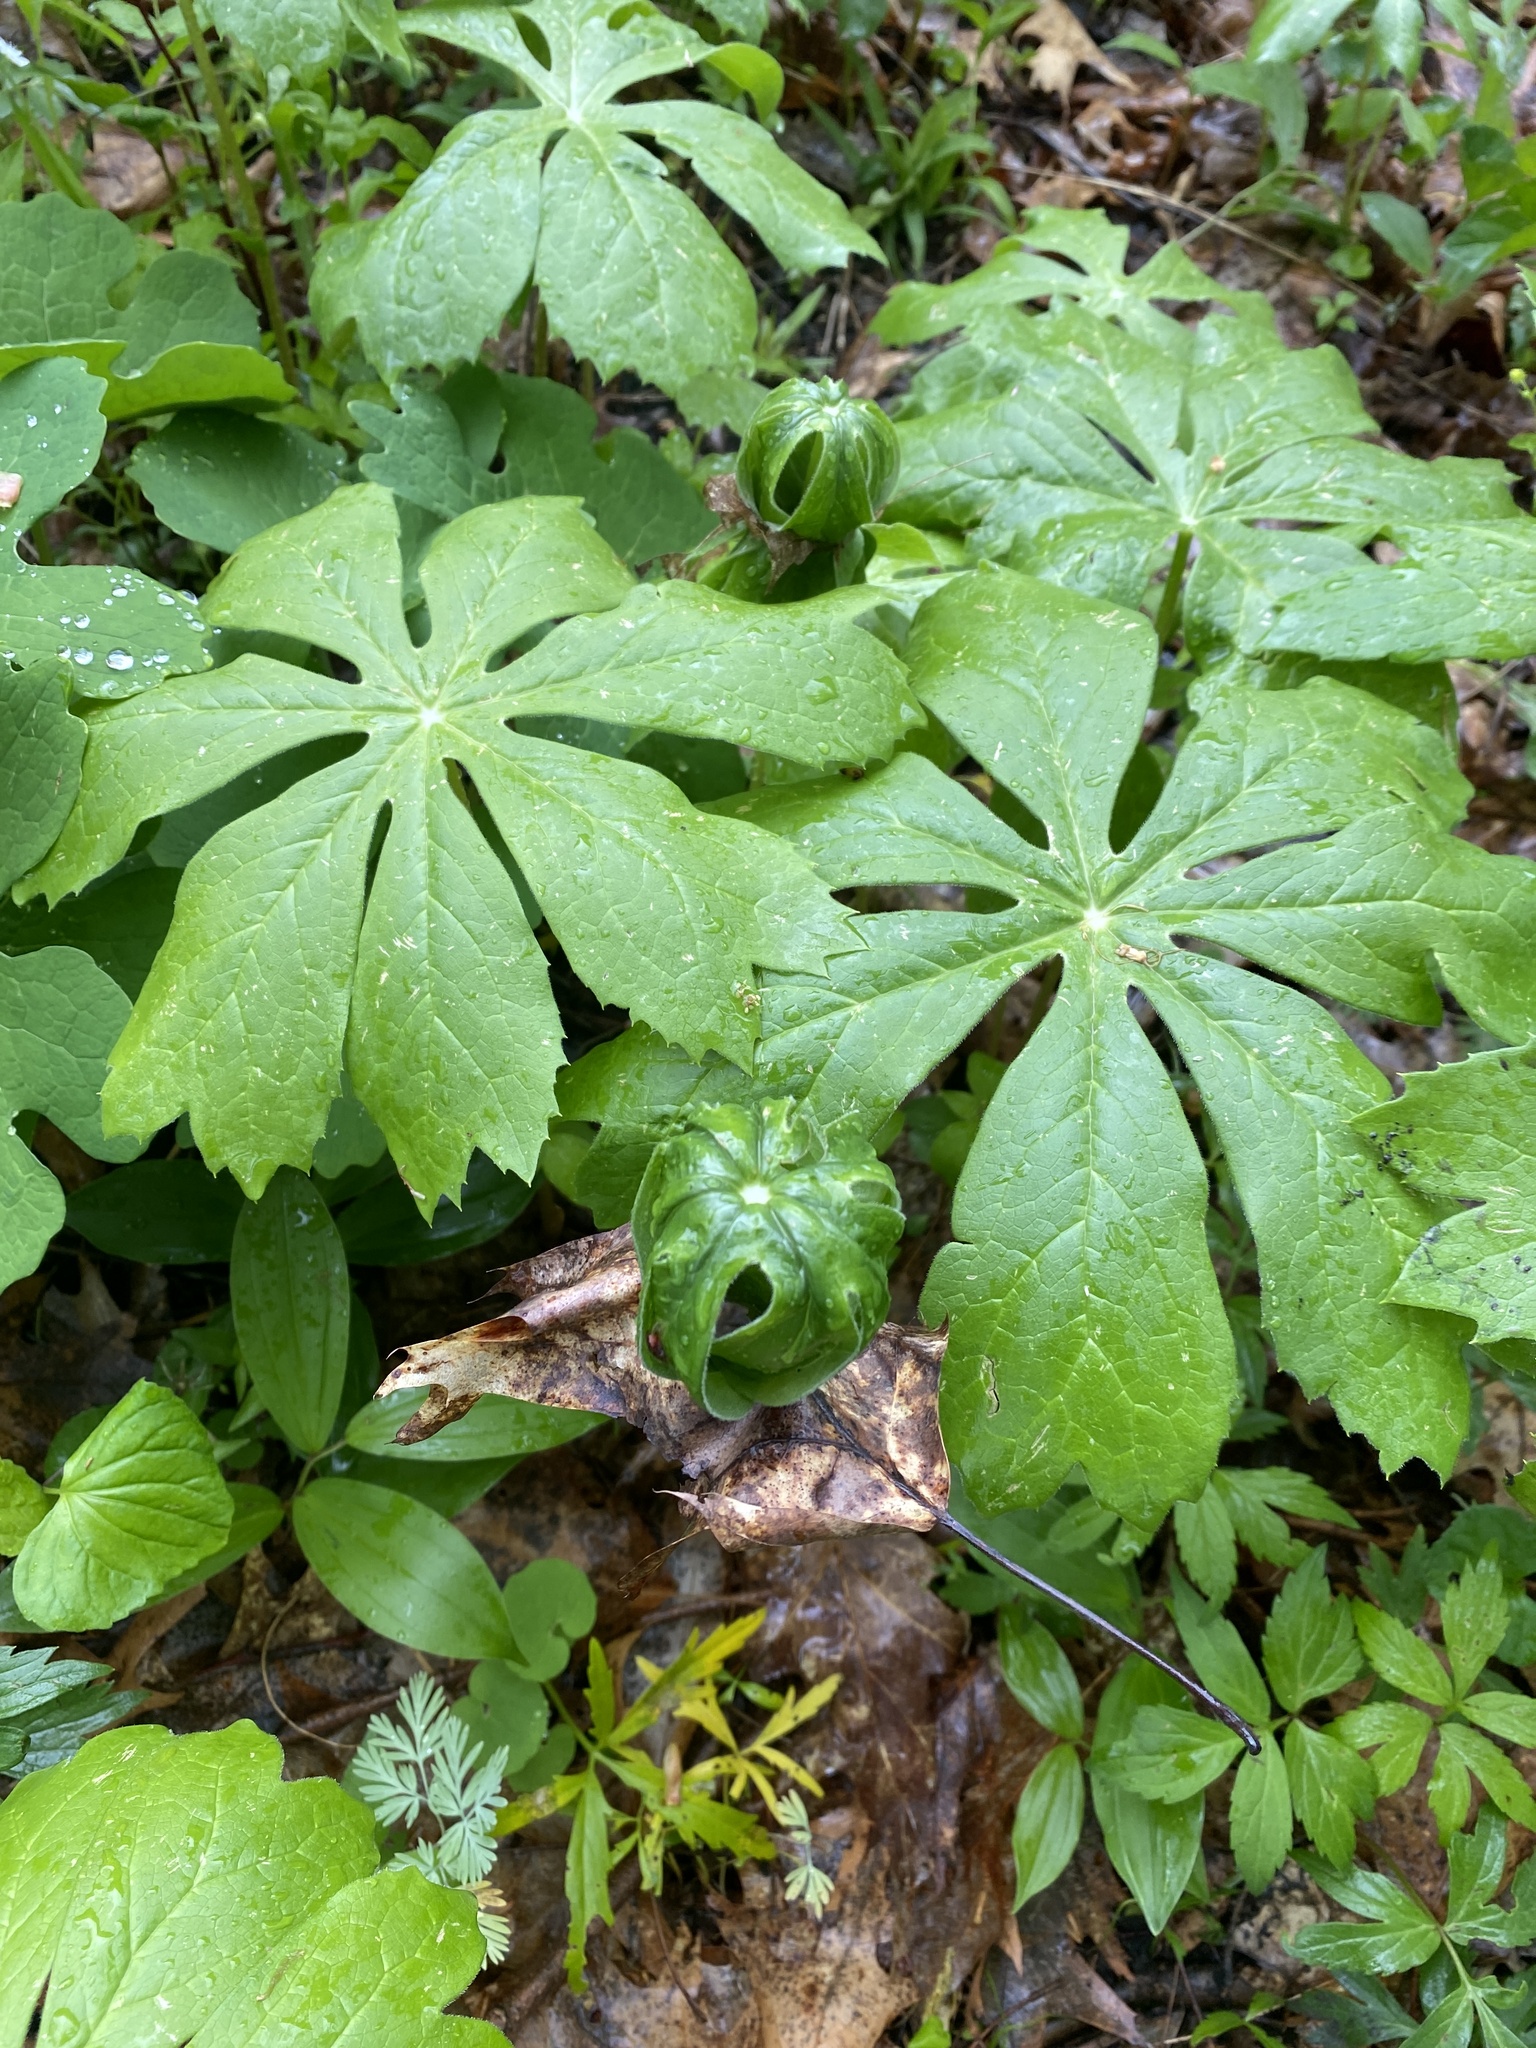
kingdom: Plantae
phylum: Tracheophyta
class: Magnoliopsida
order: Ranunculales
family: Berberidaceae
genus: Podophyllum
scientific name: Podophyllum peltatum
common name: Wild mandrake
